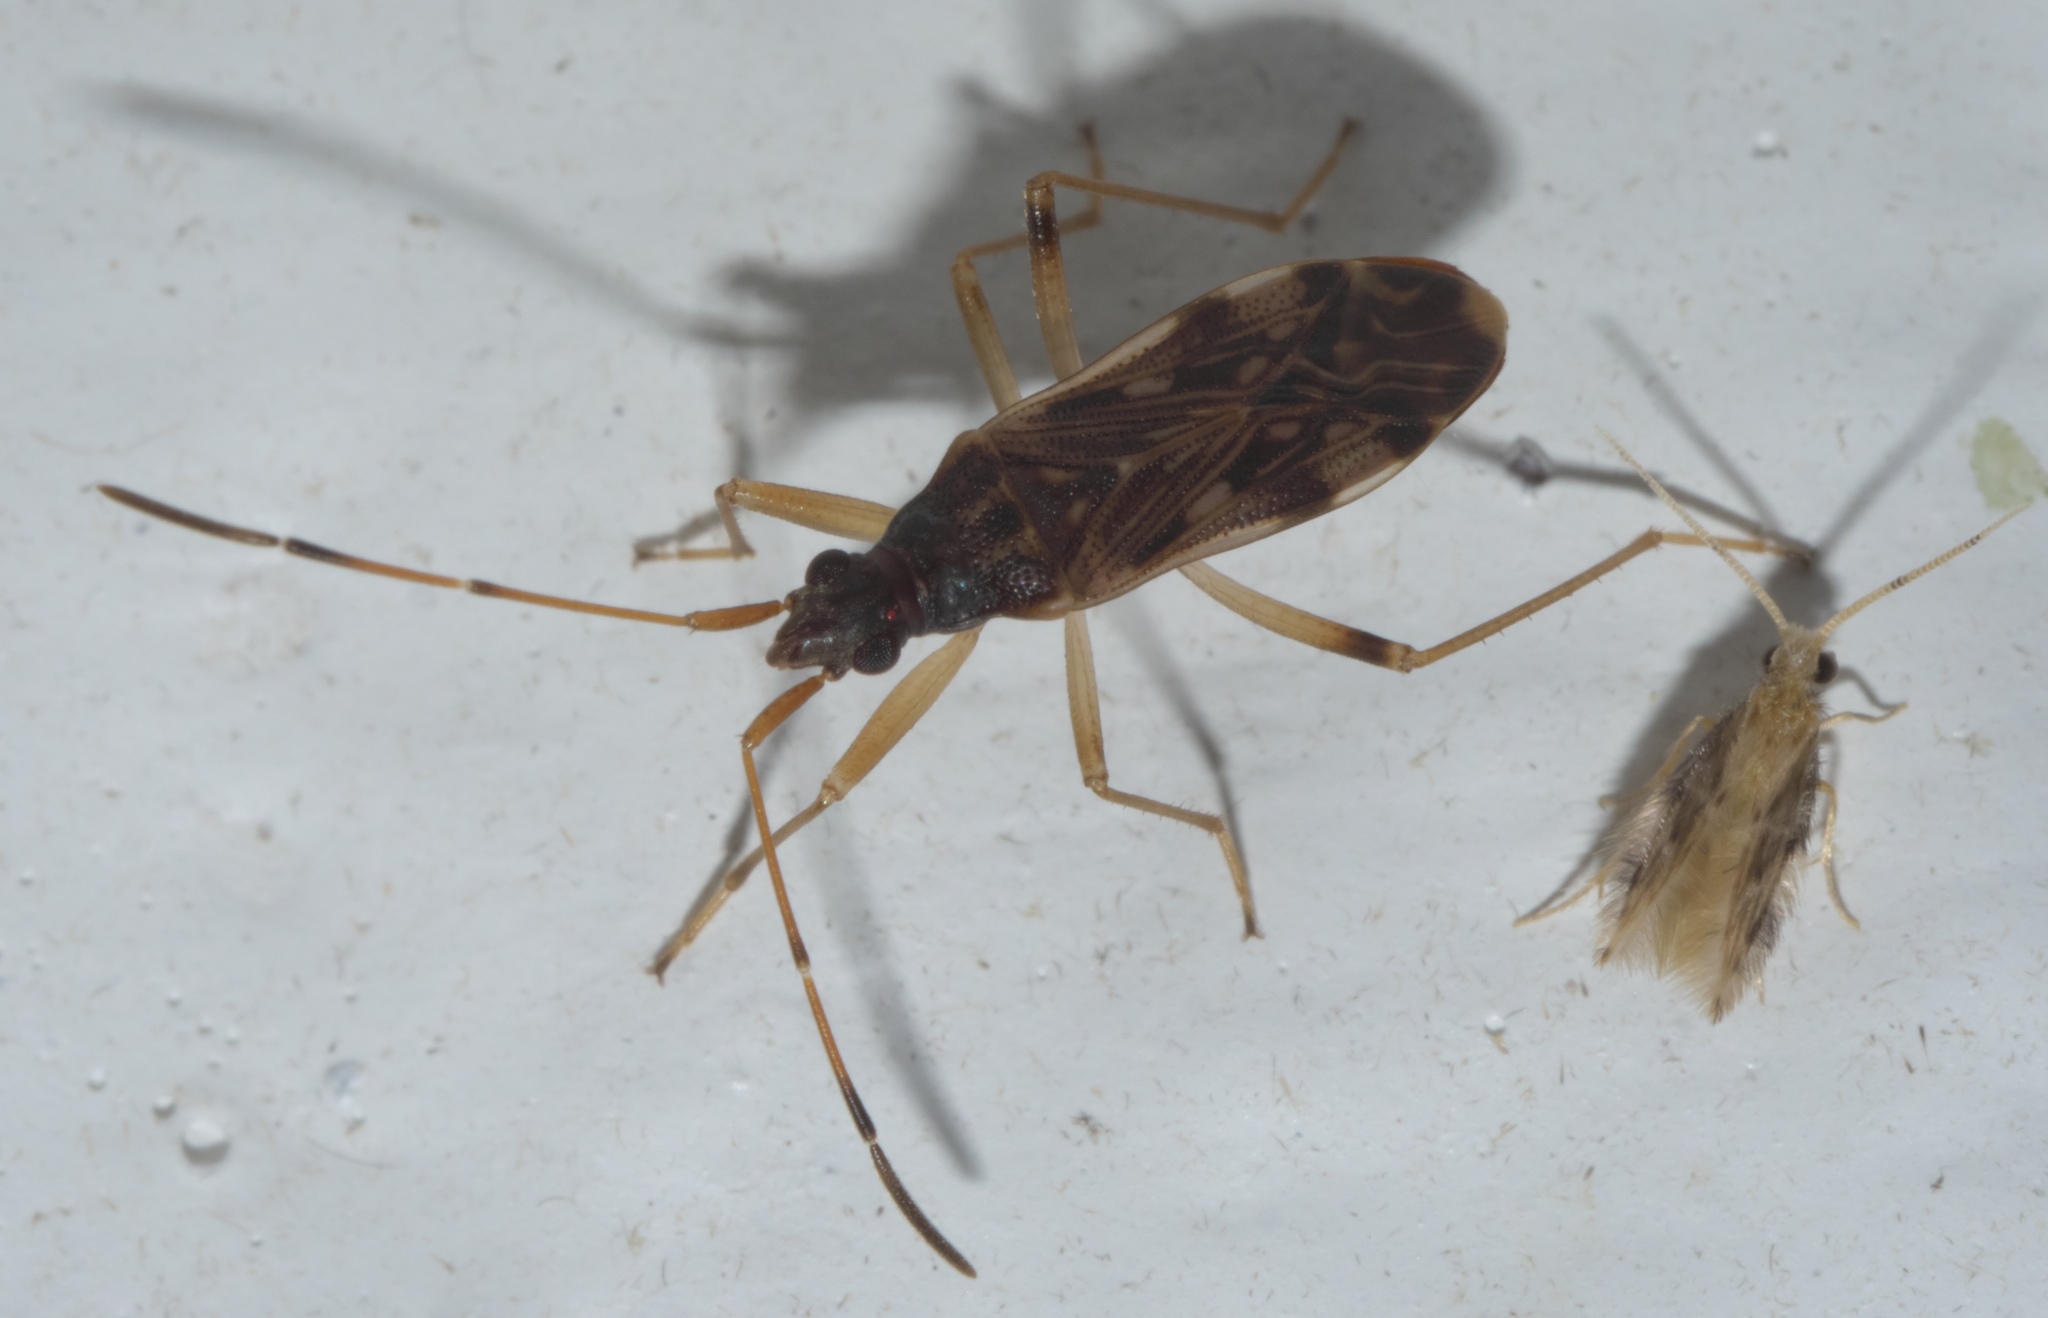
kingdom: Animalia
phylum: Arthropoda
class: Insecta
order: Hemiptera
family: Rhyparochromidae
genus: Ozophora
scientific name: Ozophora salsaverdeae
